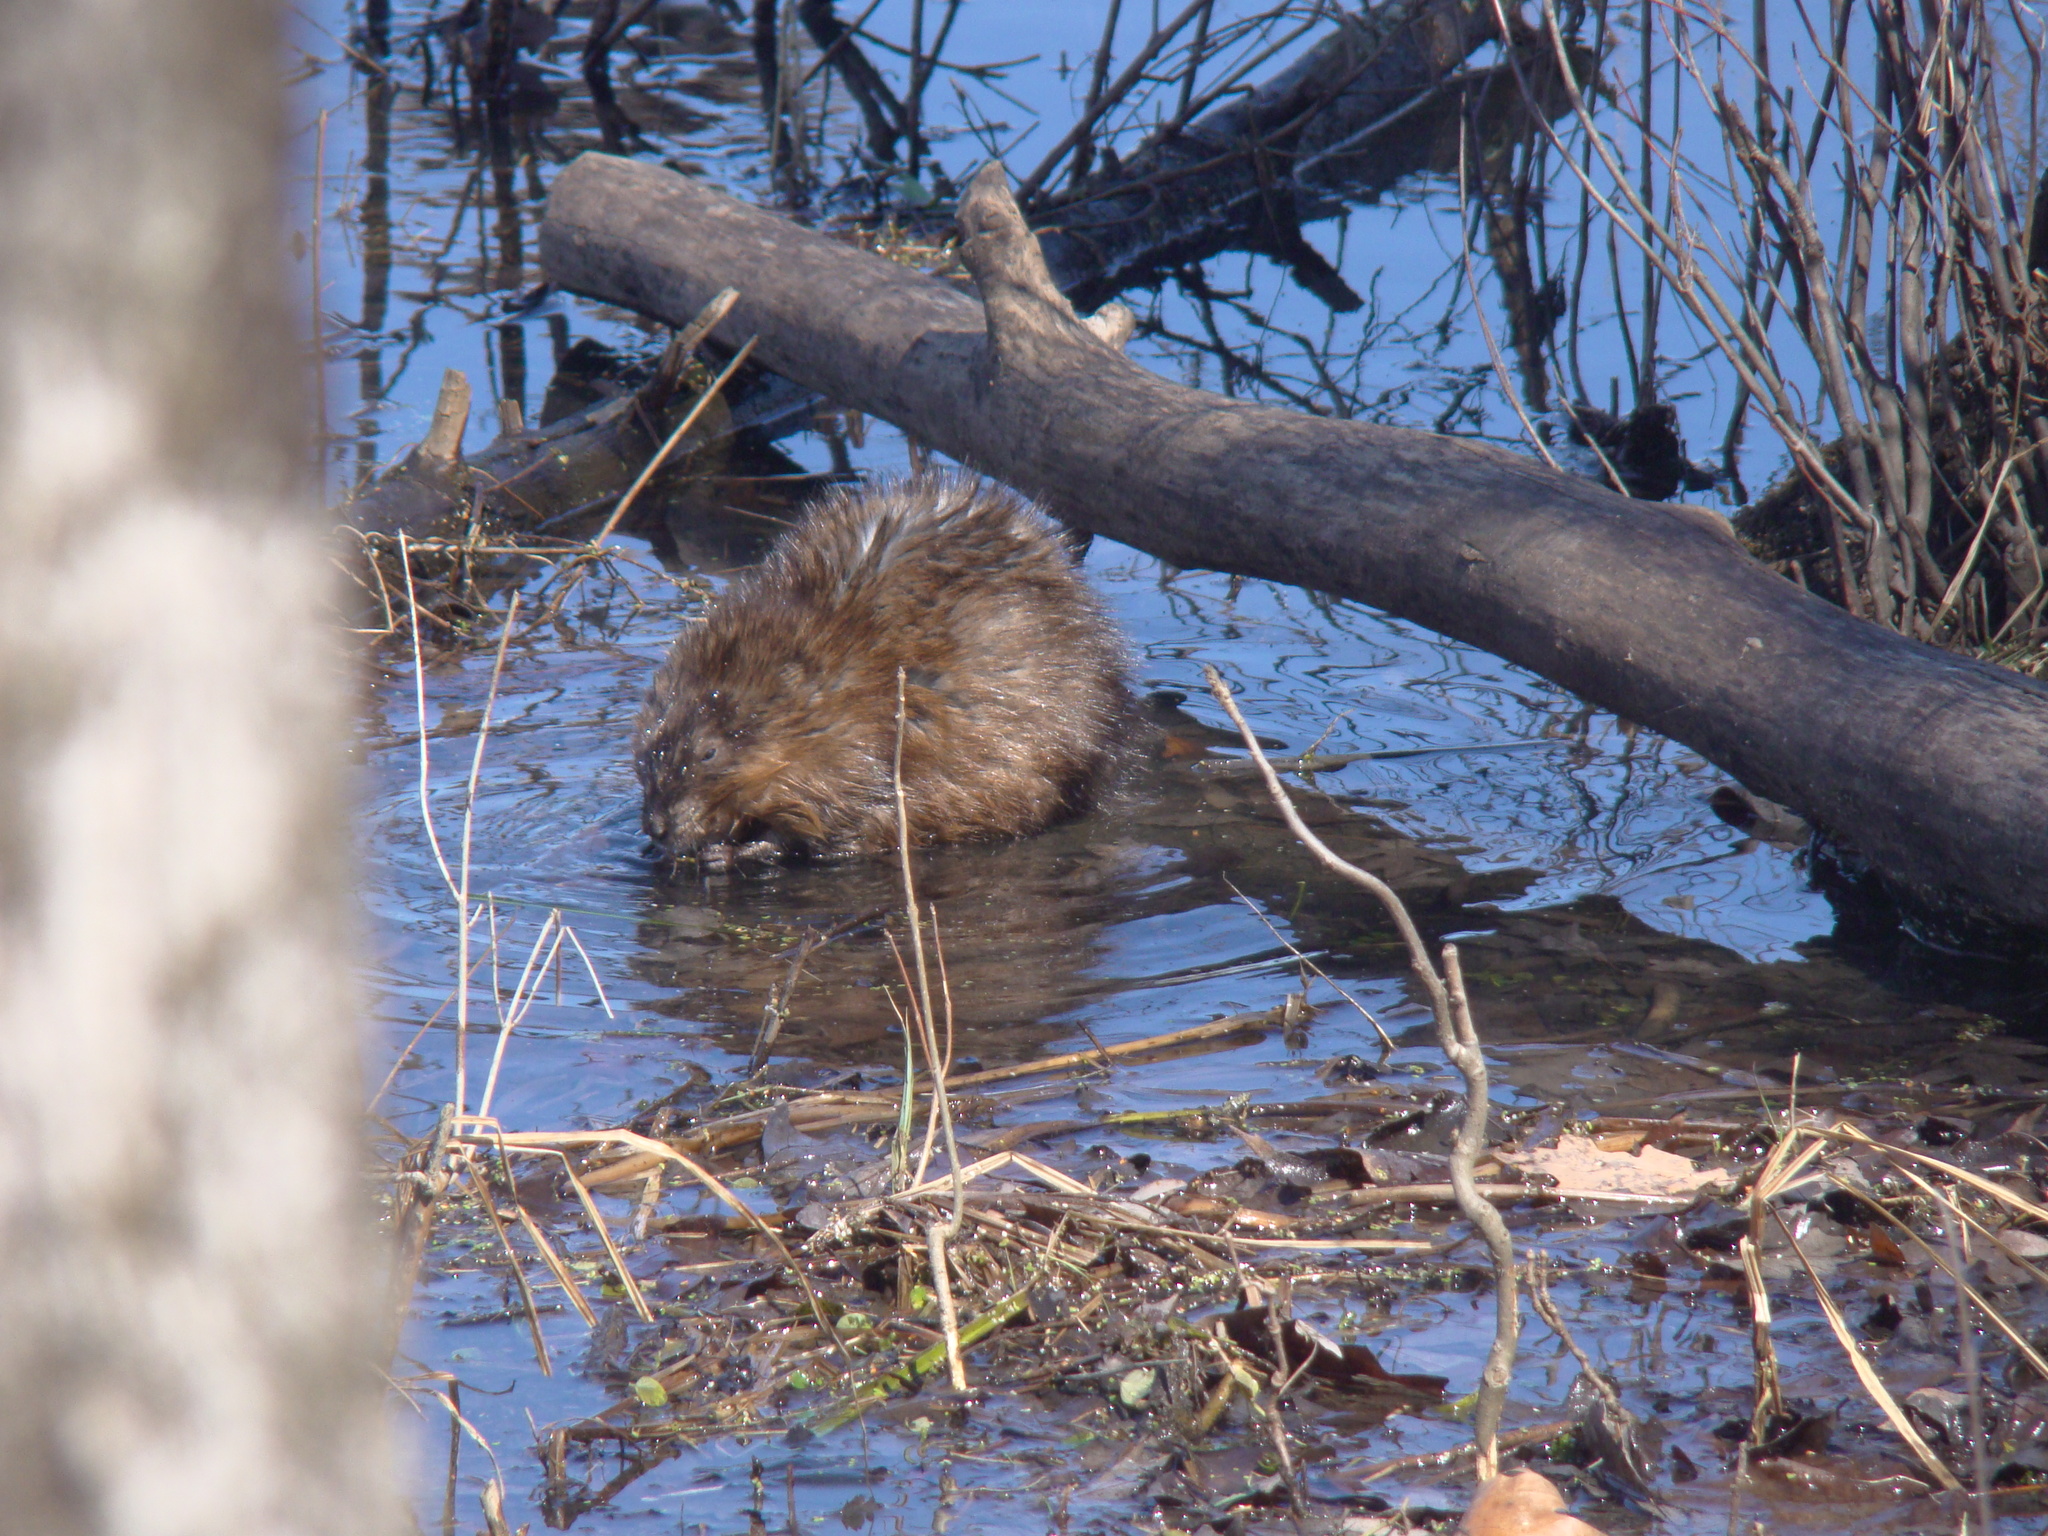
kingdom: Animalia
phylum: Chordata
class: Mammalia
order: Rodentia
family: Cricetidae
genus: Ondatra
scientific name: Ondatra zibethicus
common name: Muskrat
